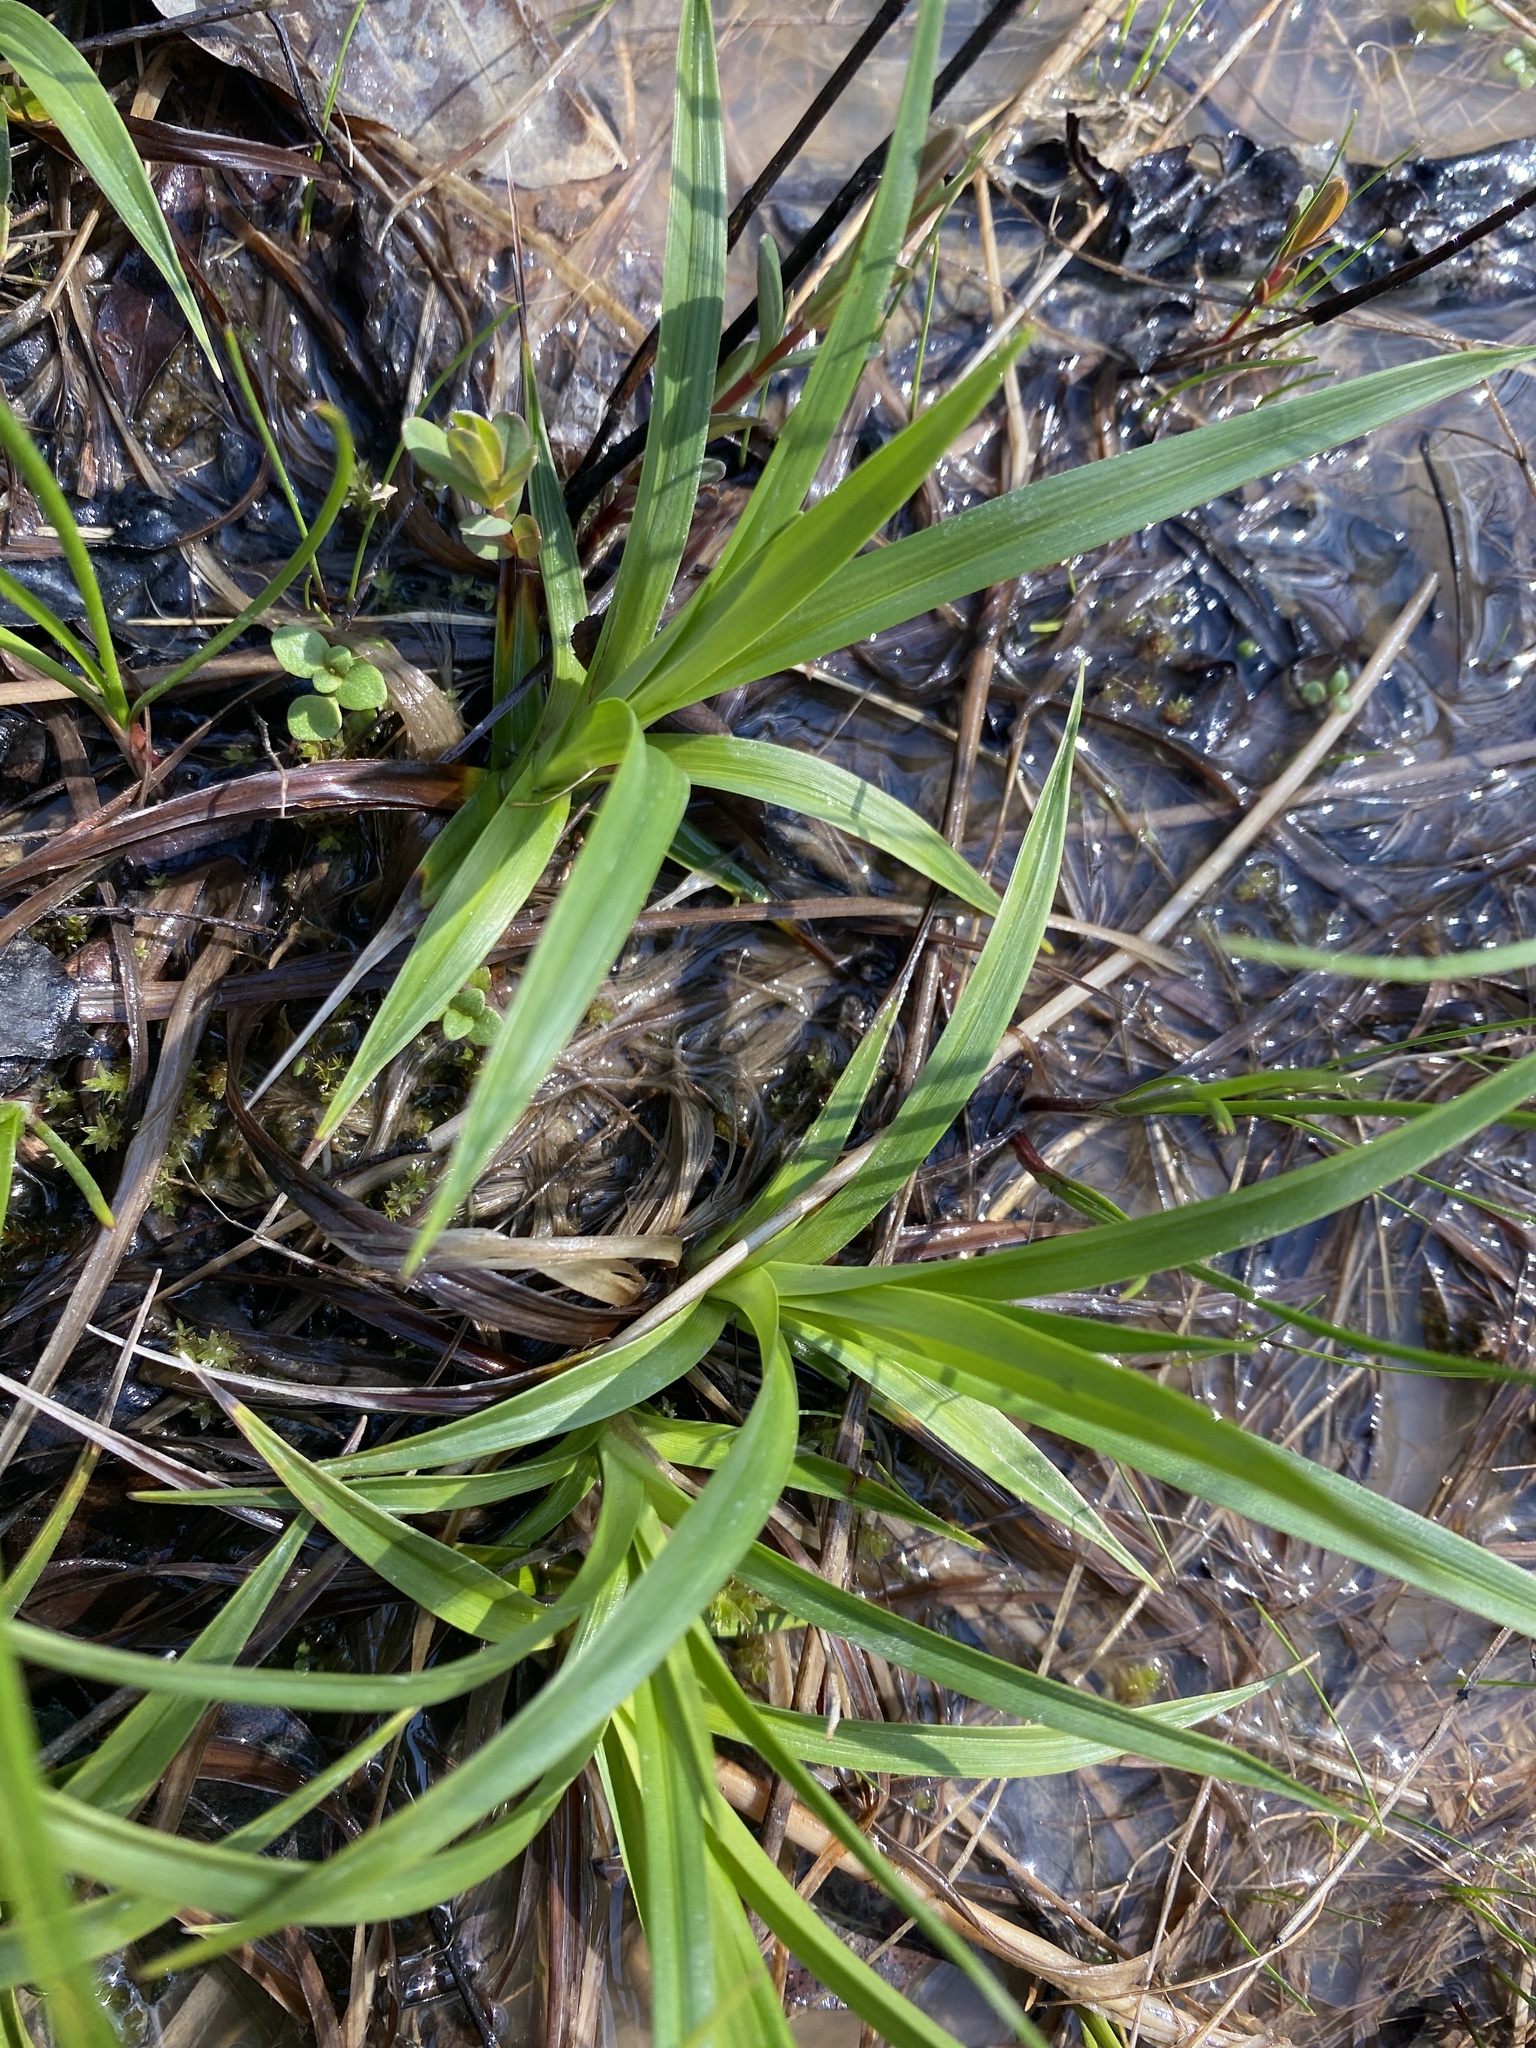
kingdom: Plantae
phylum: Tracheophyta
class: Liliopsida
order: Poales
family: Cyperaceae
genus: Scirpus
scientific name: Scirpus pendulus
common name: Nodding bulrush
